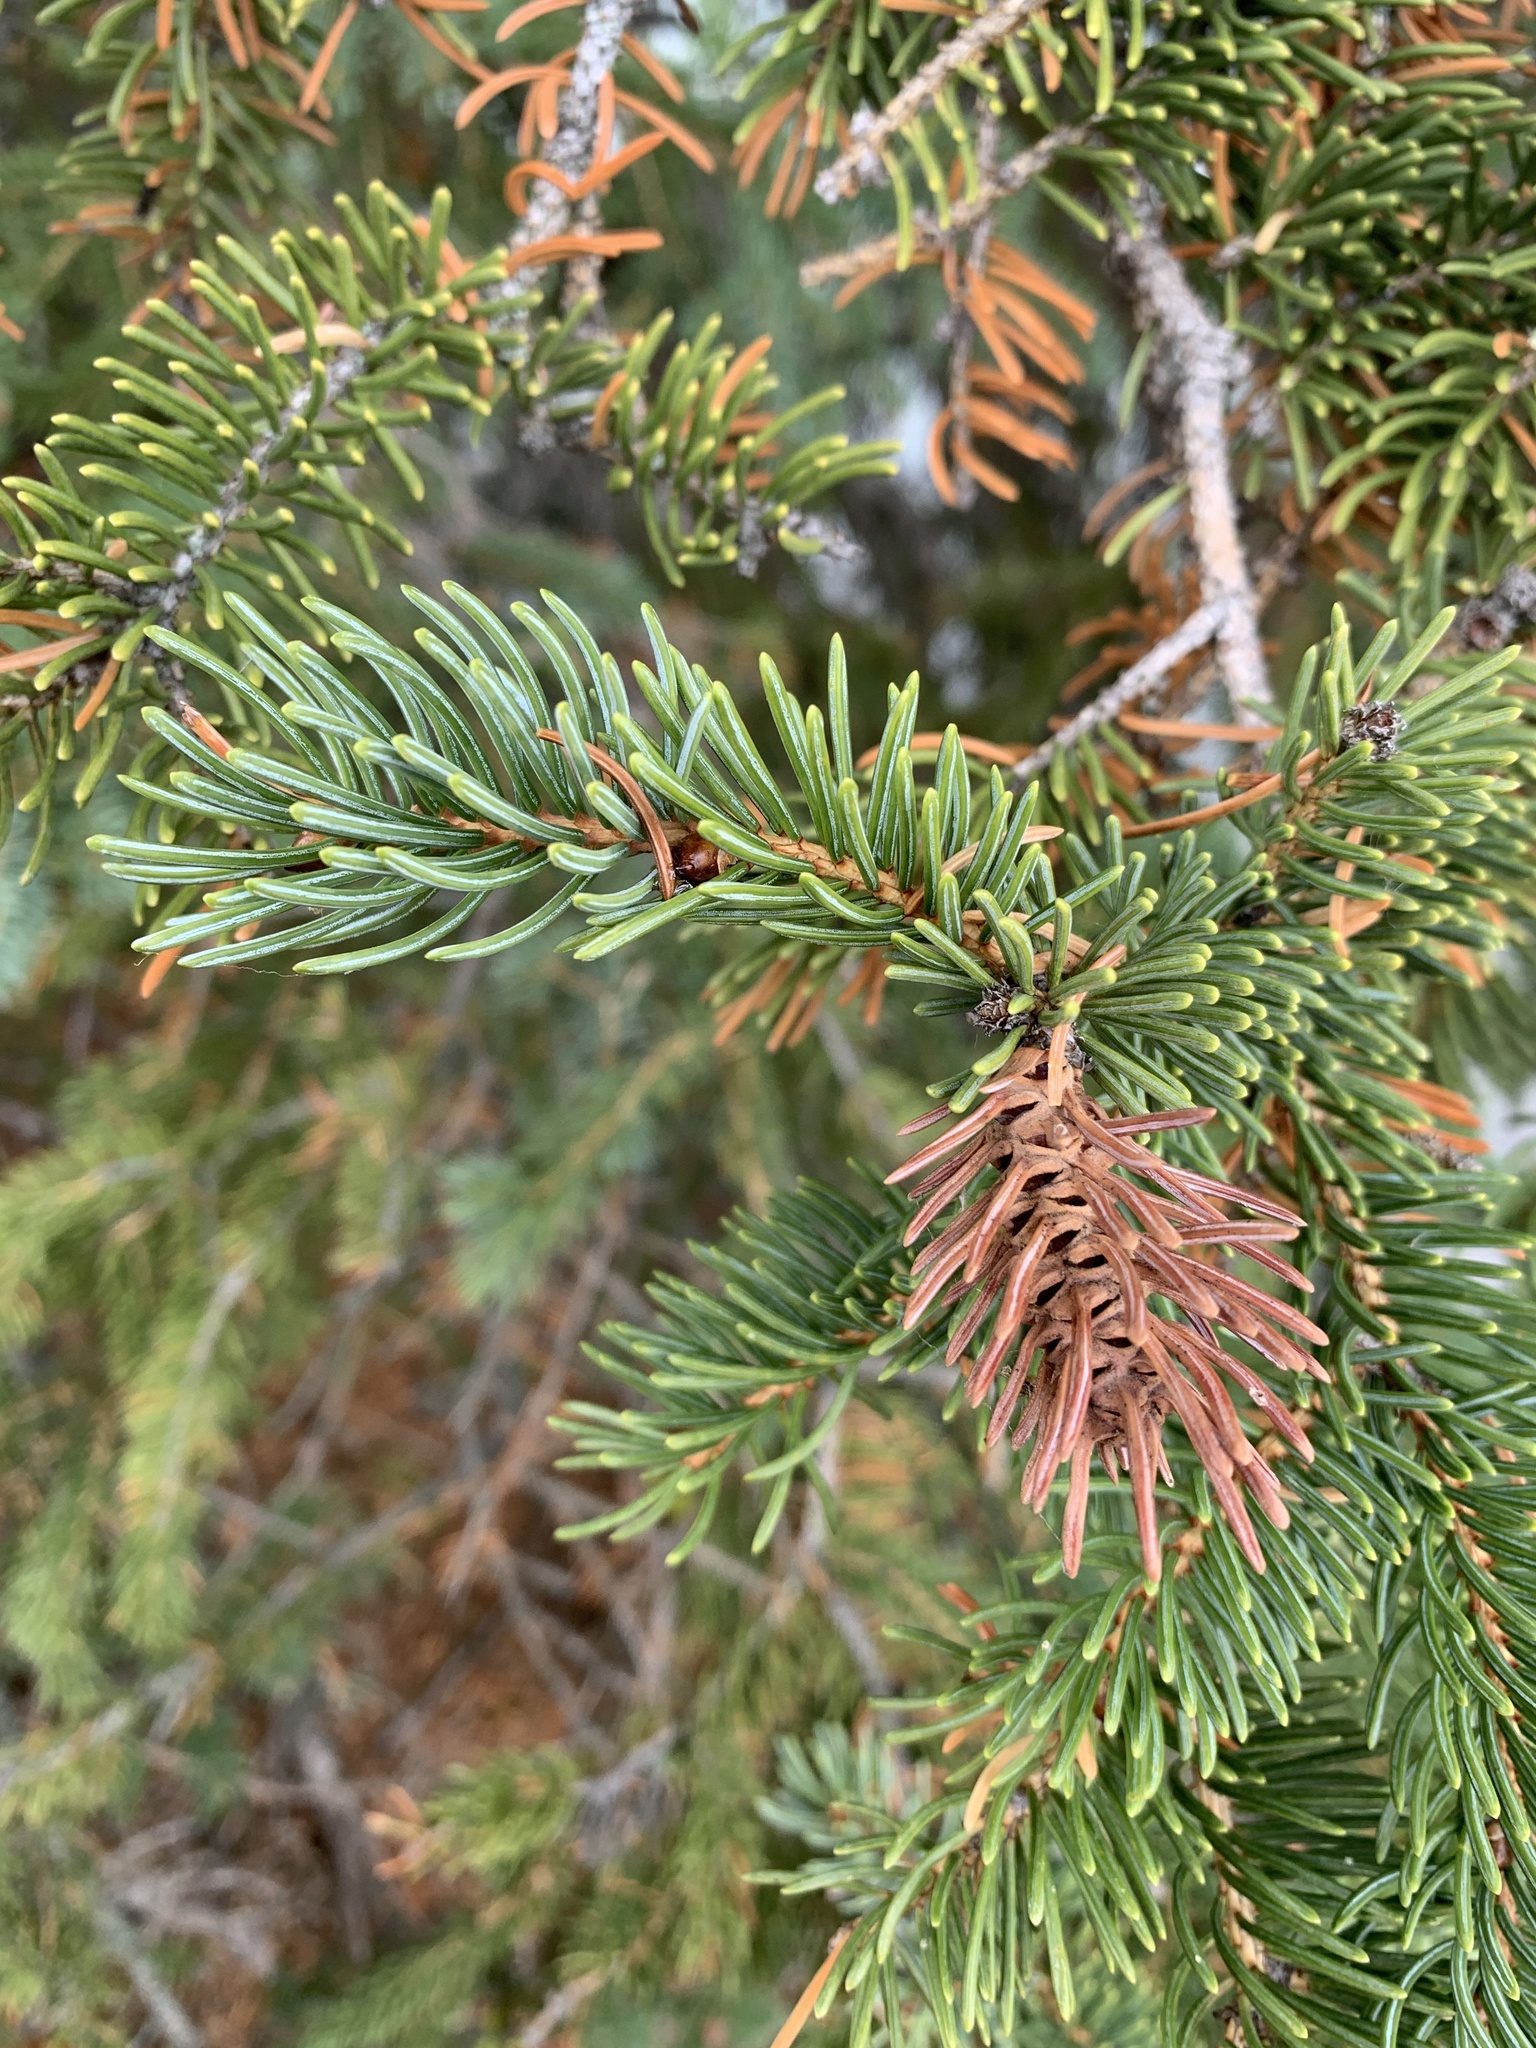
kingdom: Animalia
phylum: Arthropoda
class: Insecta
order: Hemiptera
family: Adelgidae
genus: Adelges
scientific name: Adelges cooleyi
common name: Cooley spruce gall adelgid
